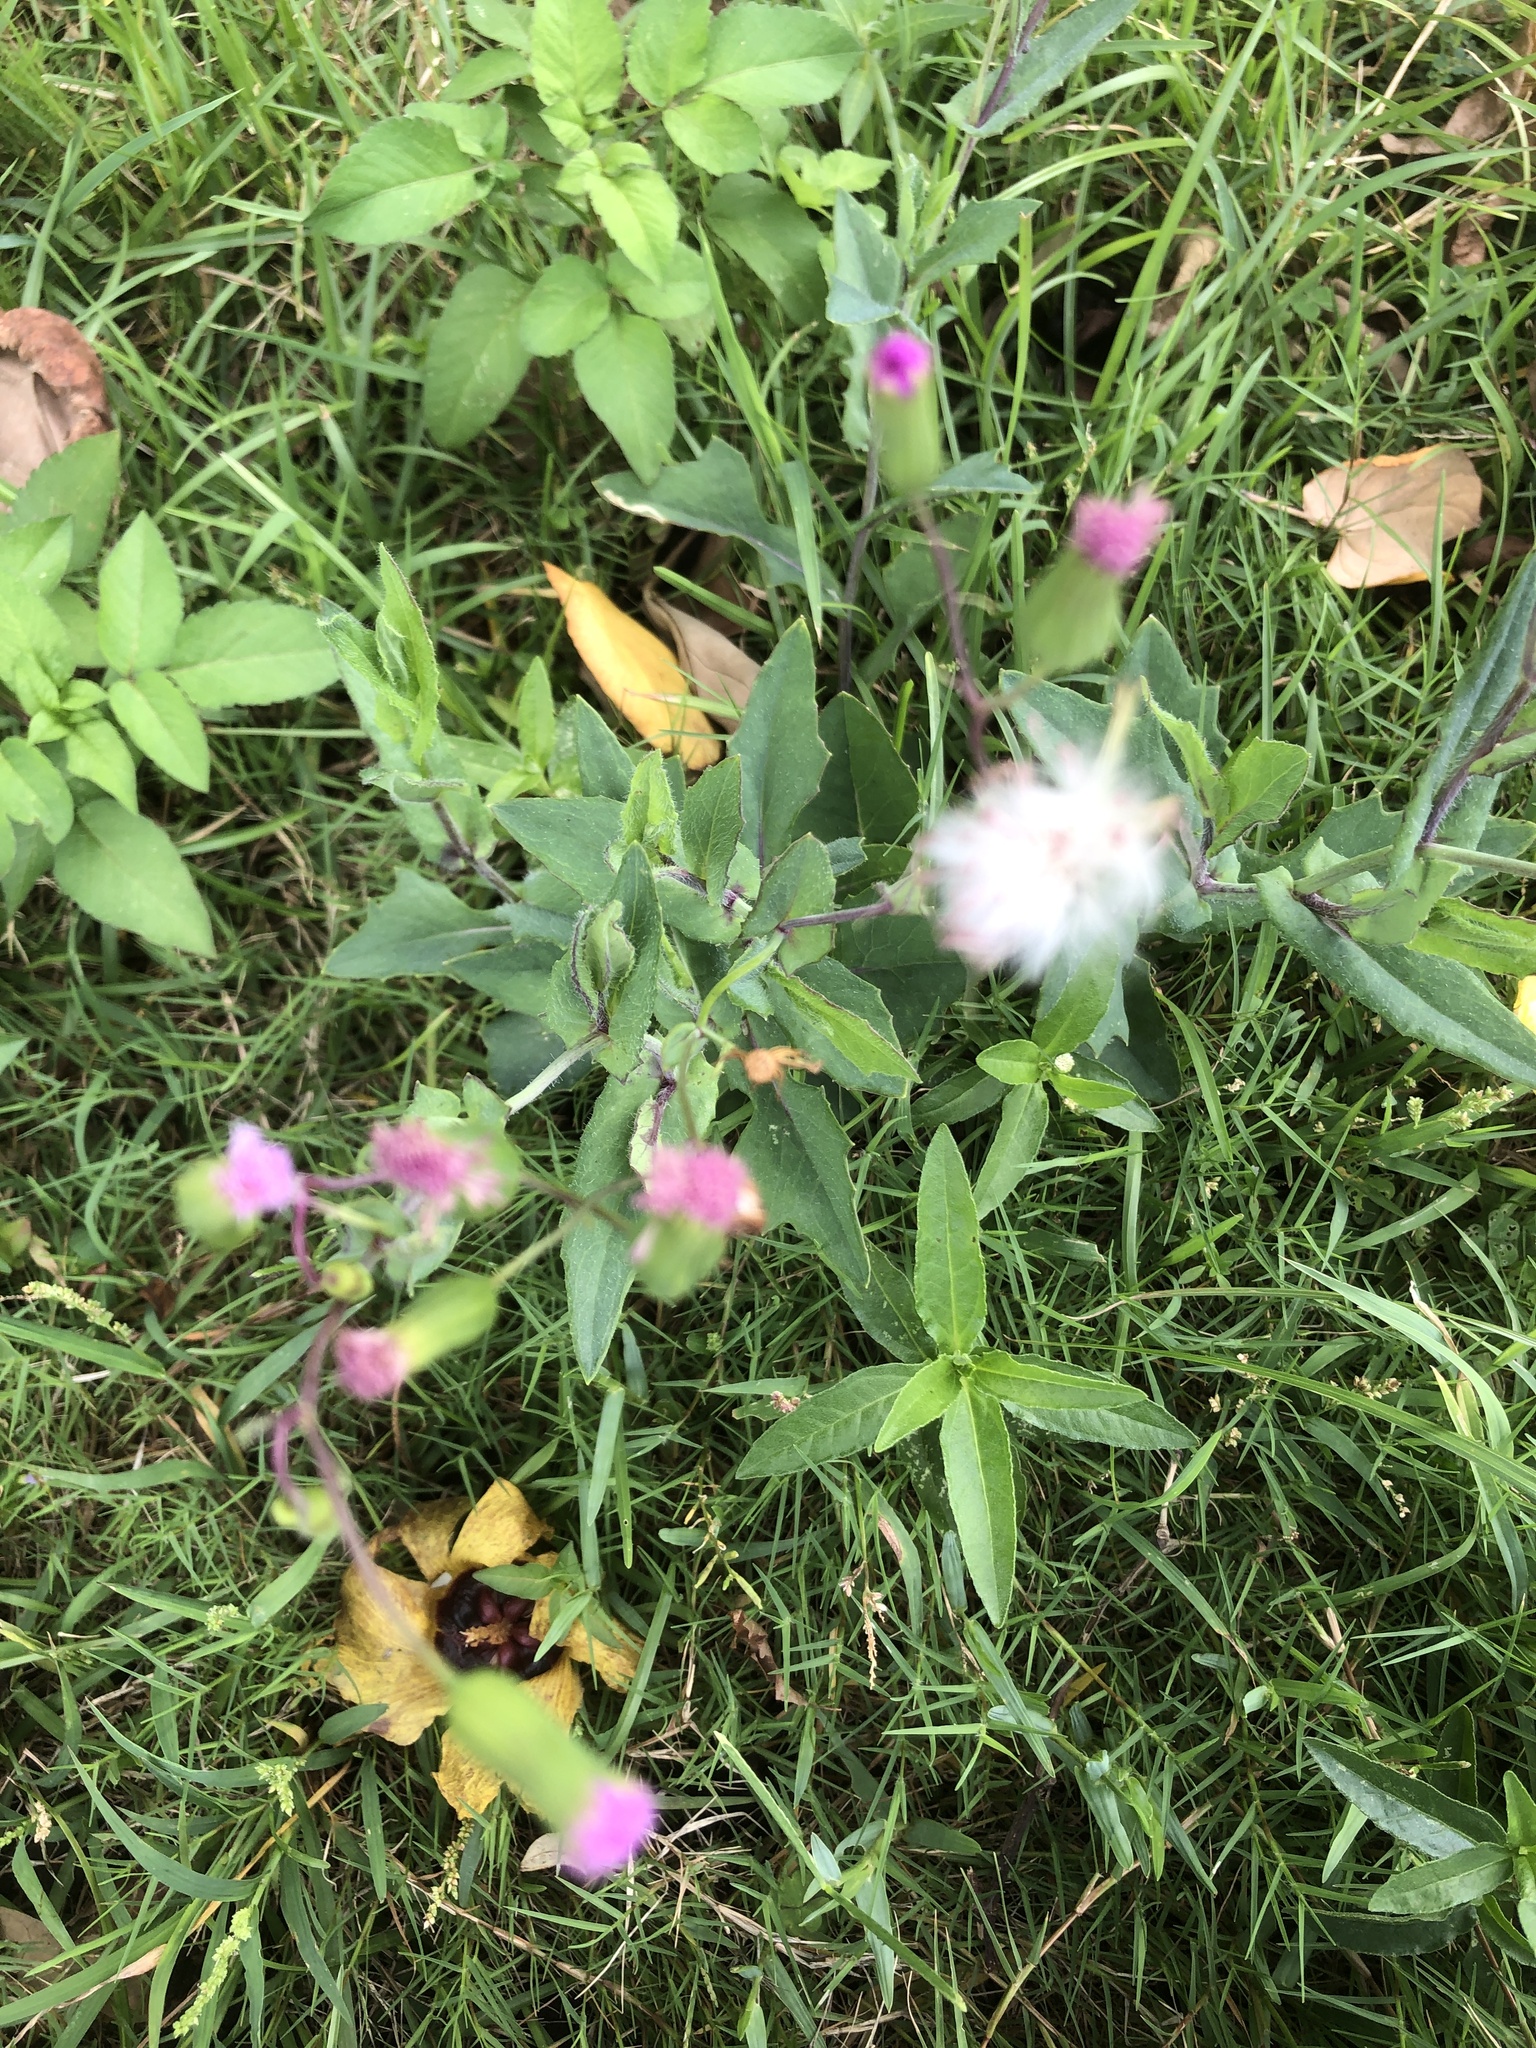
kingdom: Plantae
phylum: Tracheophyta
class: Magnoliopsida
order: Asterales
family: Asteraceae
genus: Emilia
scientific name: Emilia javanica
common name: Tassel-flower
